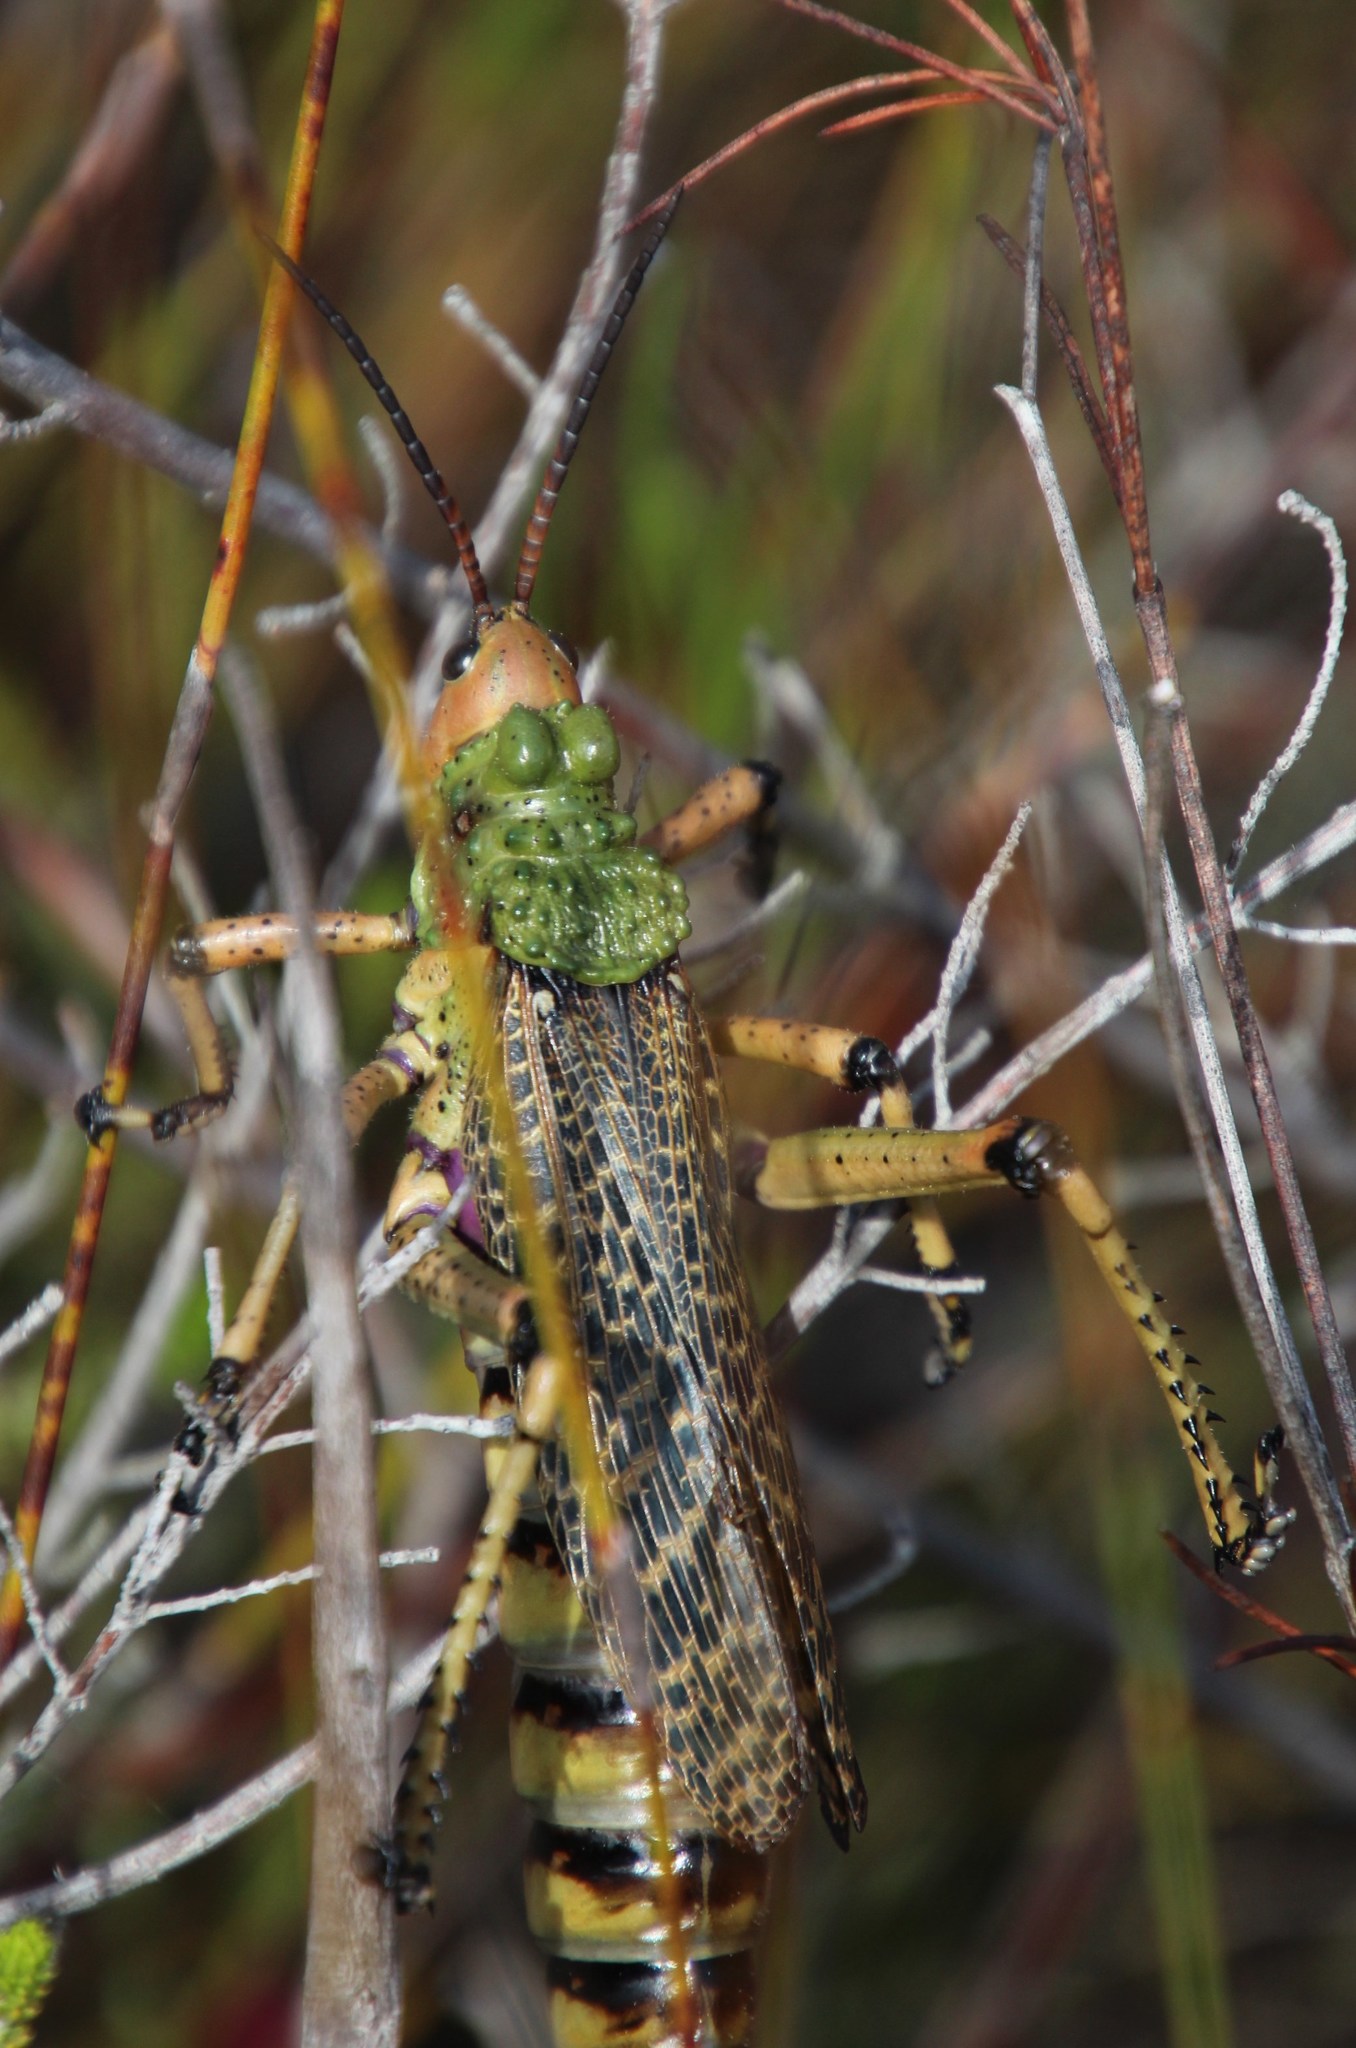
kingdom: Animalia
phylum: Arthropoda
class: Insecta
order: Orthoptera
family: Pyrgomorphidae
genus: Phymateus
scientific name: Phymateus leprosus
